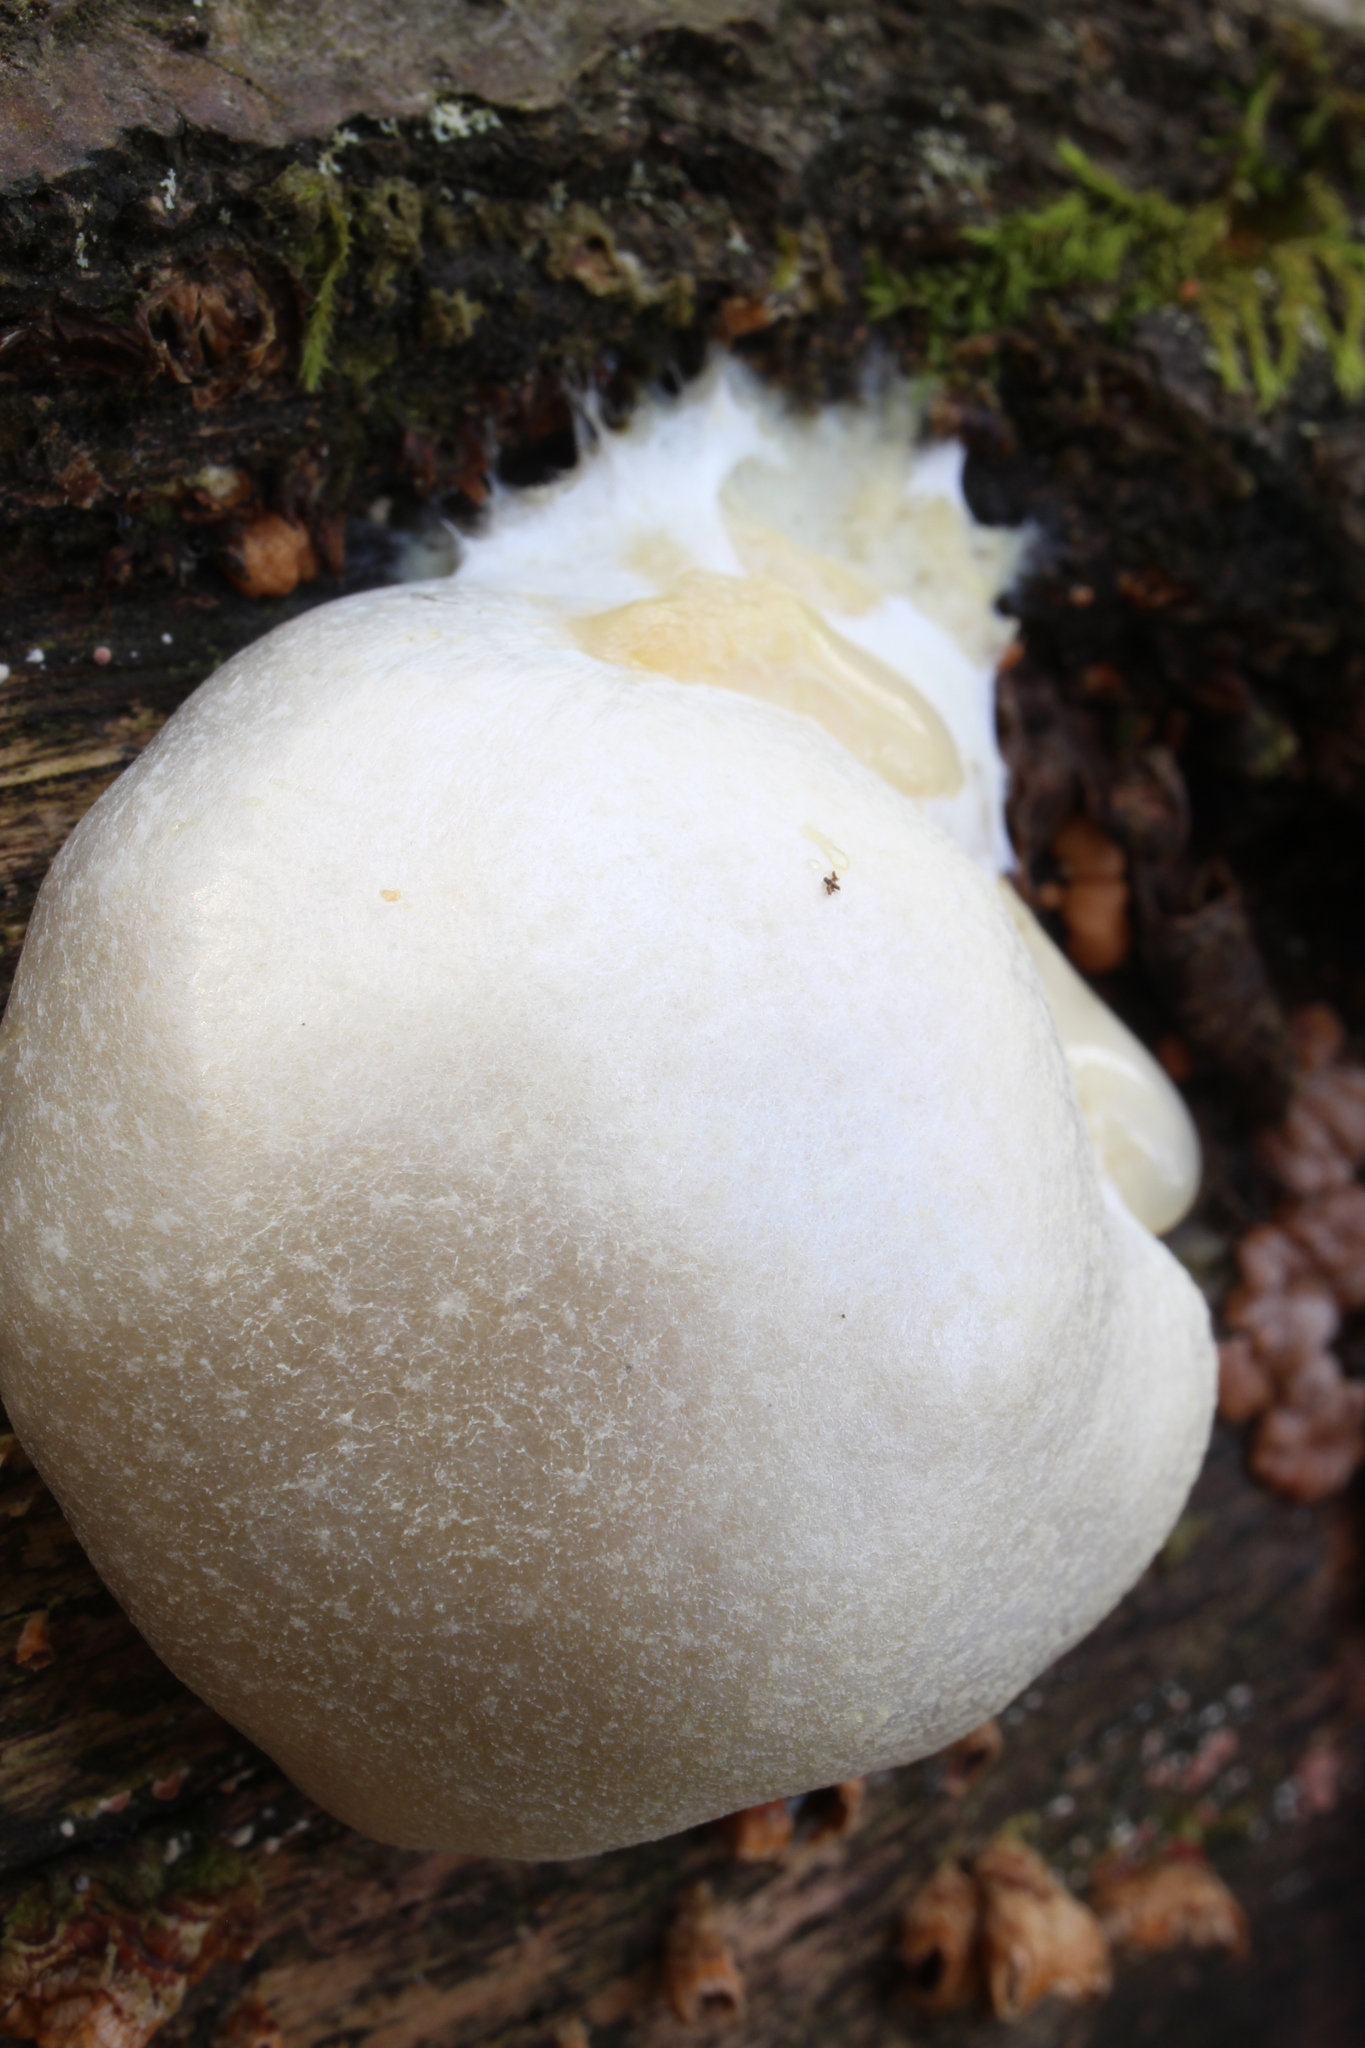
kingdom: Protozoa
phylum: Mycetozoa
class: Myxomycetes
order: Cribrariales
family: Tubiferaceae
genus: Reticularia
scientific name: Reticularia lycoperdon
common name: False puffball
